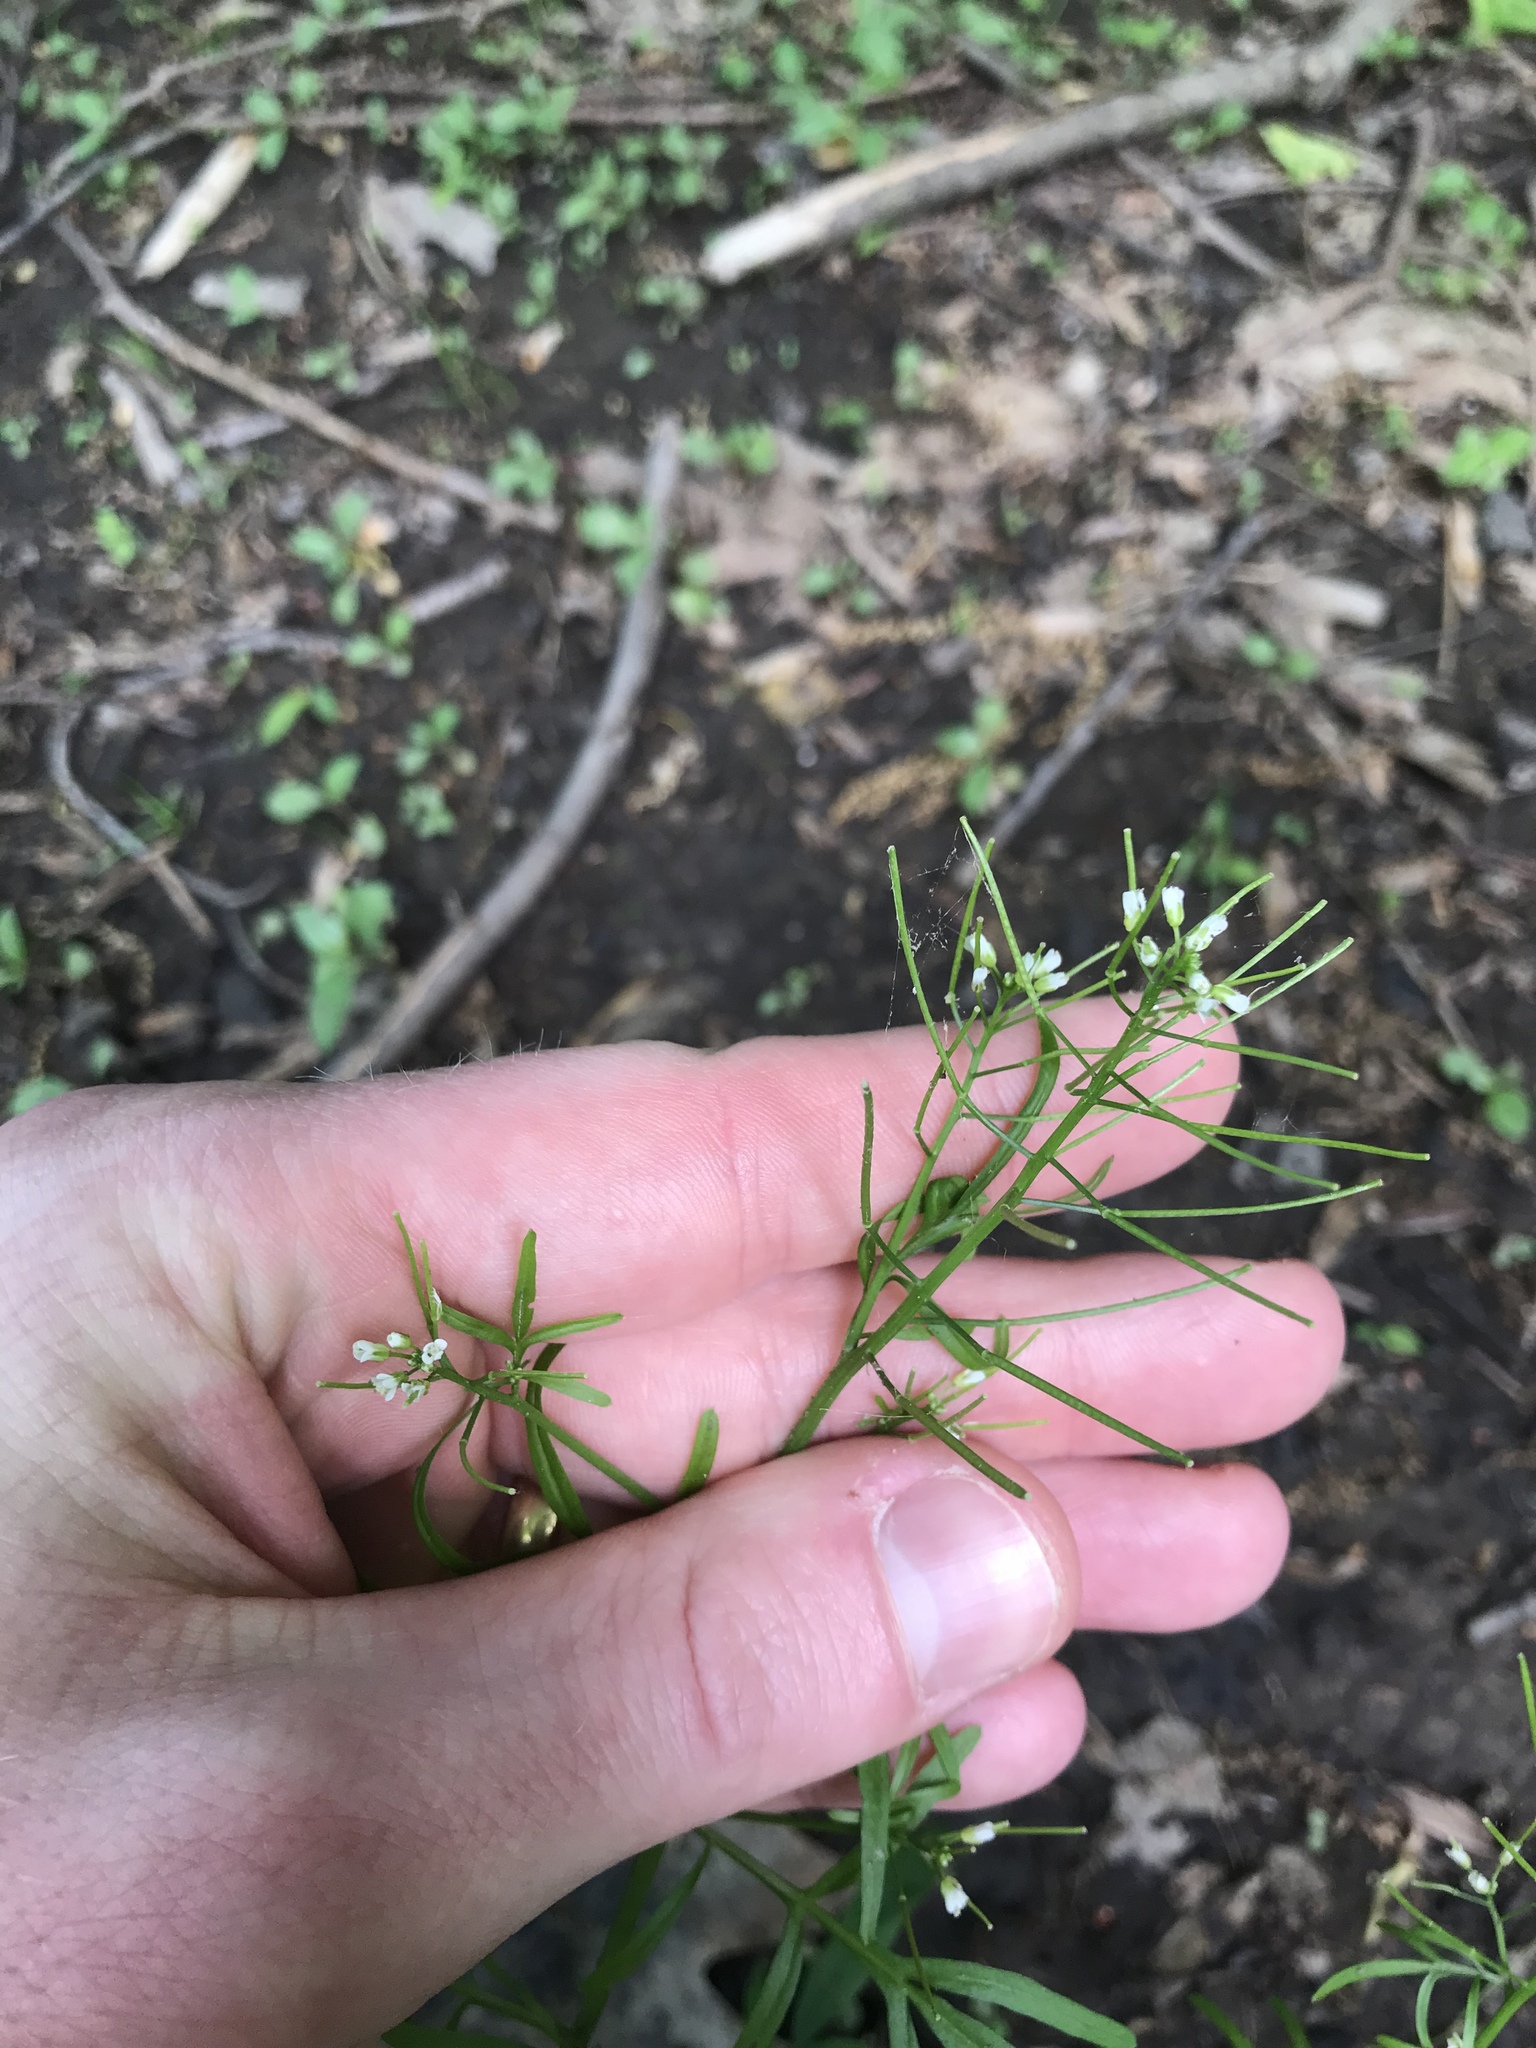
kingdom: Plantae
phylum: Tracheophyta
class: Magnoliopsida
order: Brassicales
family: Brassicaceae
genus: Cardamine
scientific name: Cardamine pensylvanica
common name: Pennsylvania bittercress
